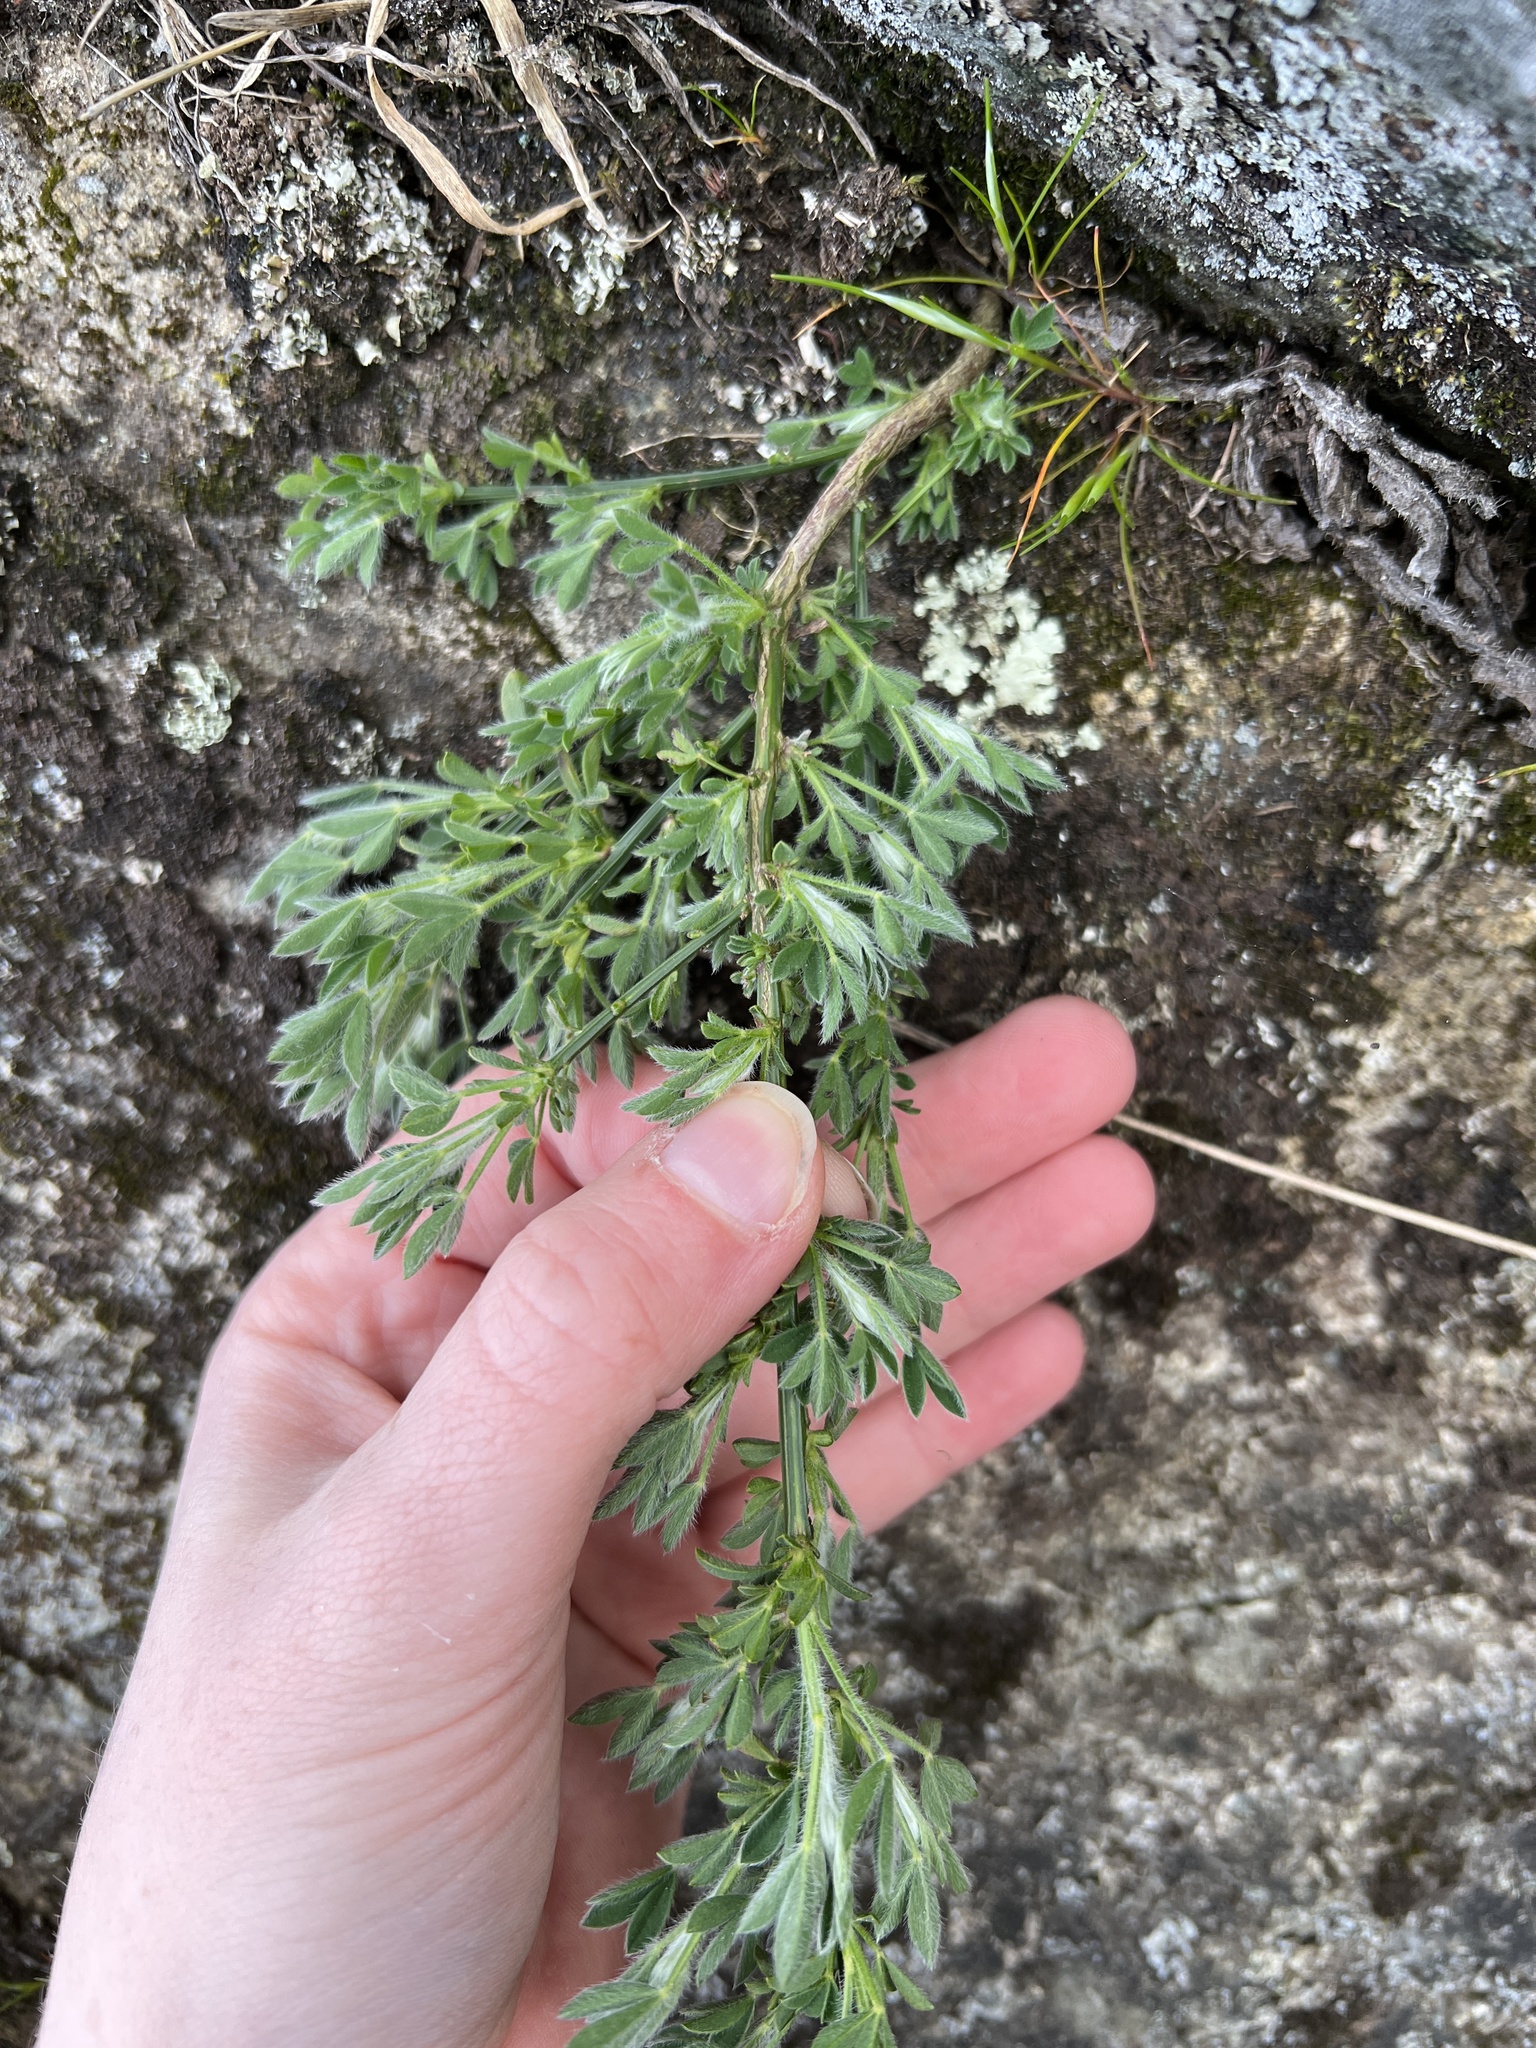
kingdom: Plantae
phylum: Tracheophyta
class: Magnoliopsida
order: Fabales
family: Fabaceae
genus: Cytisus
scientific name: Cytisus scoparius
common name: Scotch broom
